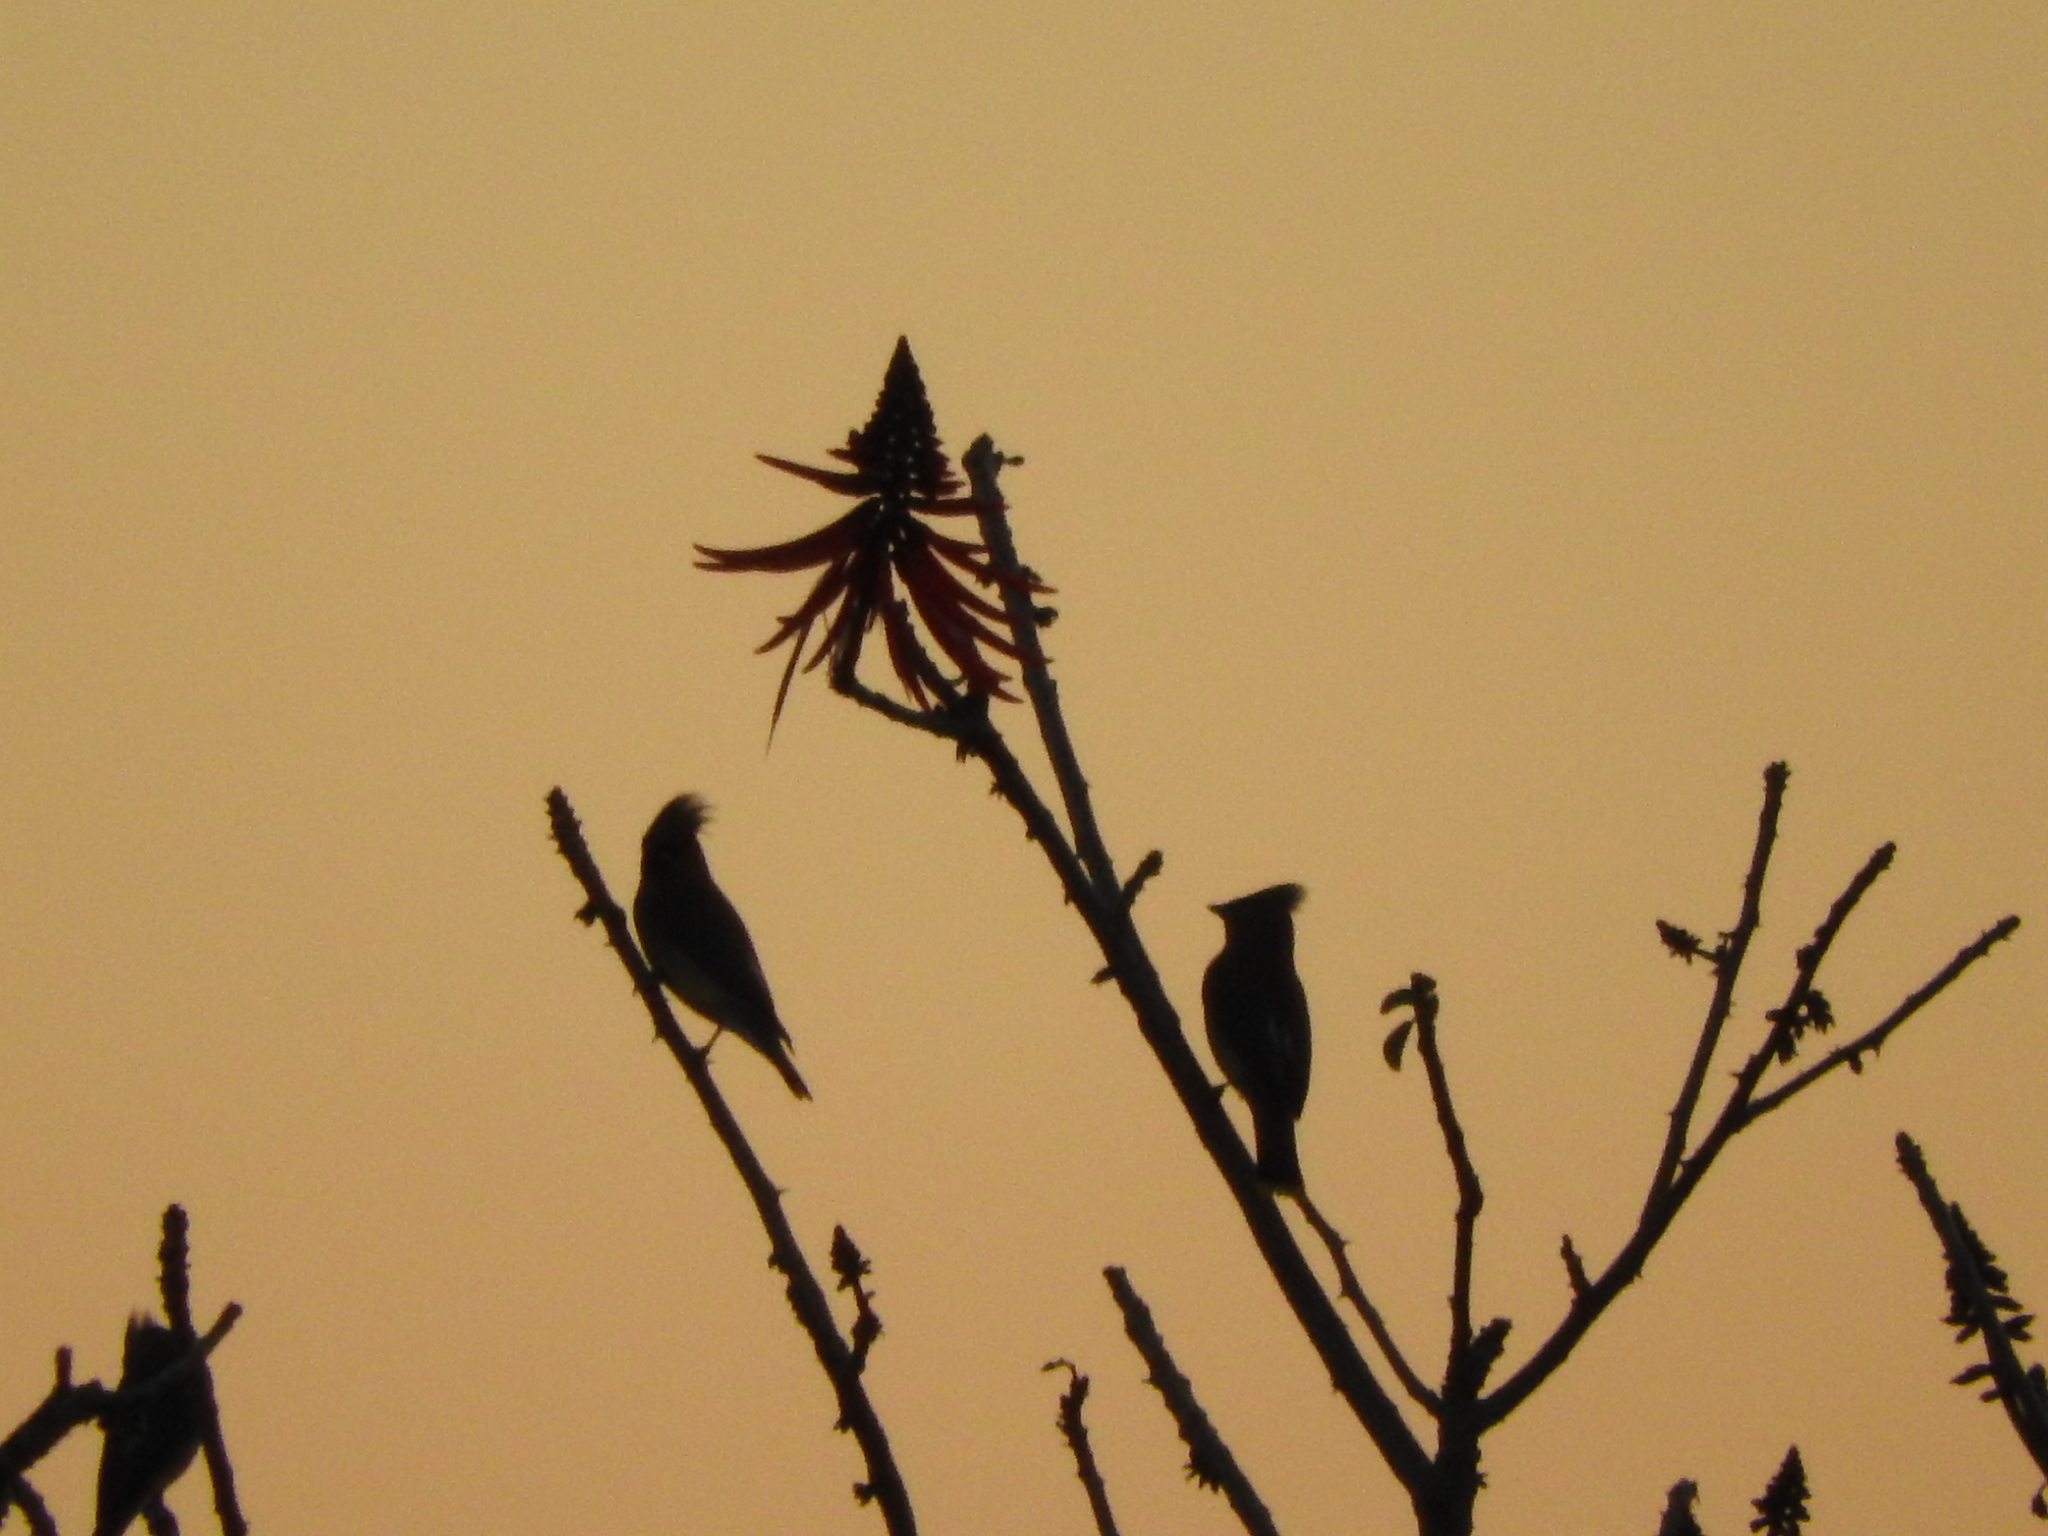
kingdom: Animalia
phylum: Chordata
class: Aves
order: Passeriformes
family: Bombycillidae
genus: Bombycilla
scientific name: Bombycilla cedrorum
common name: Cedar waxwing
